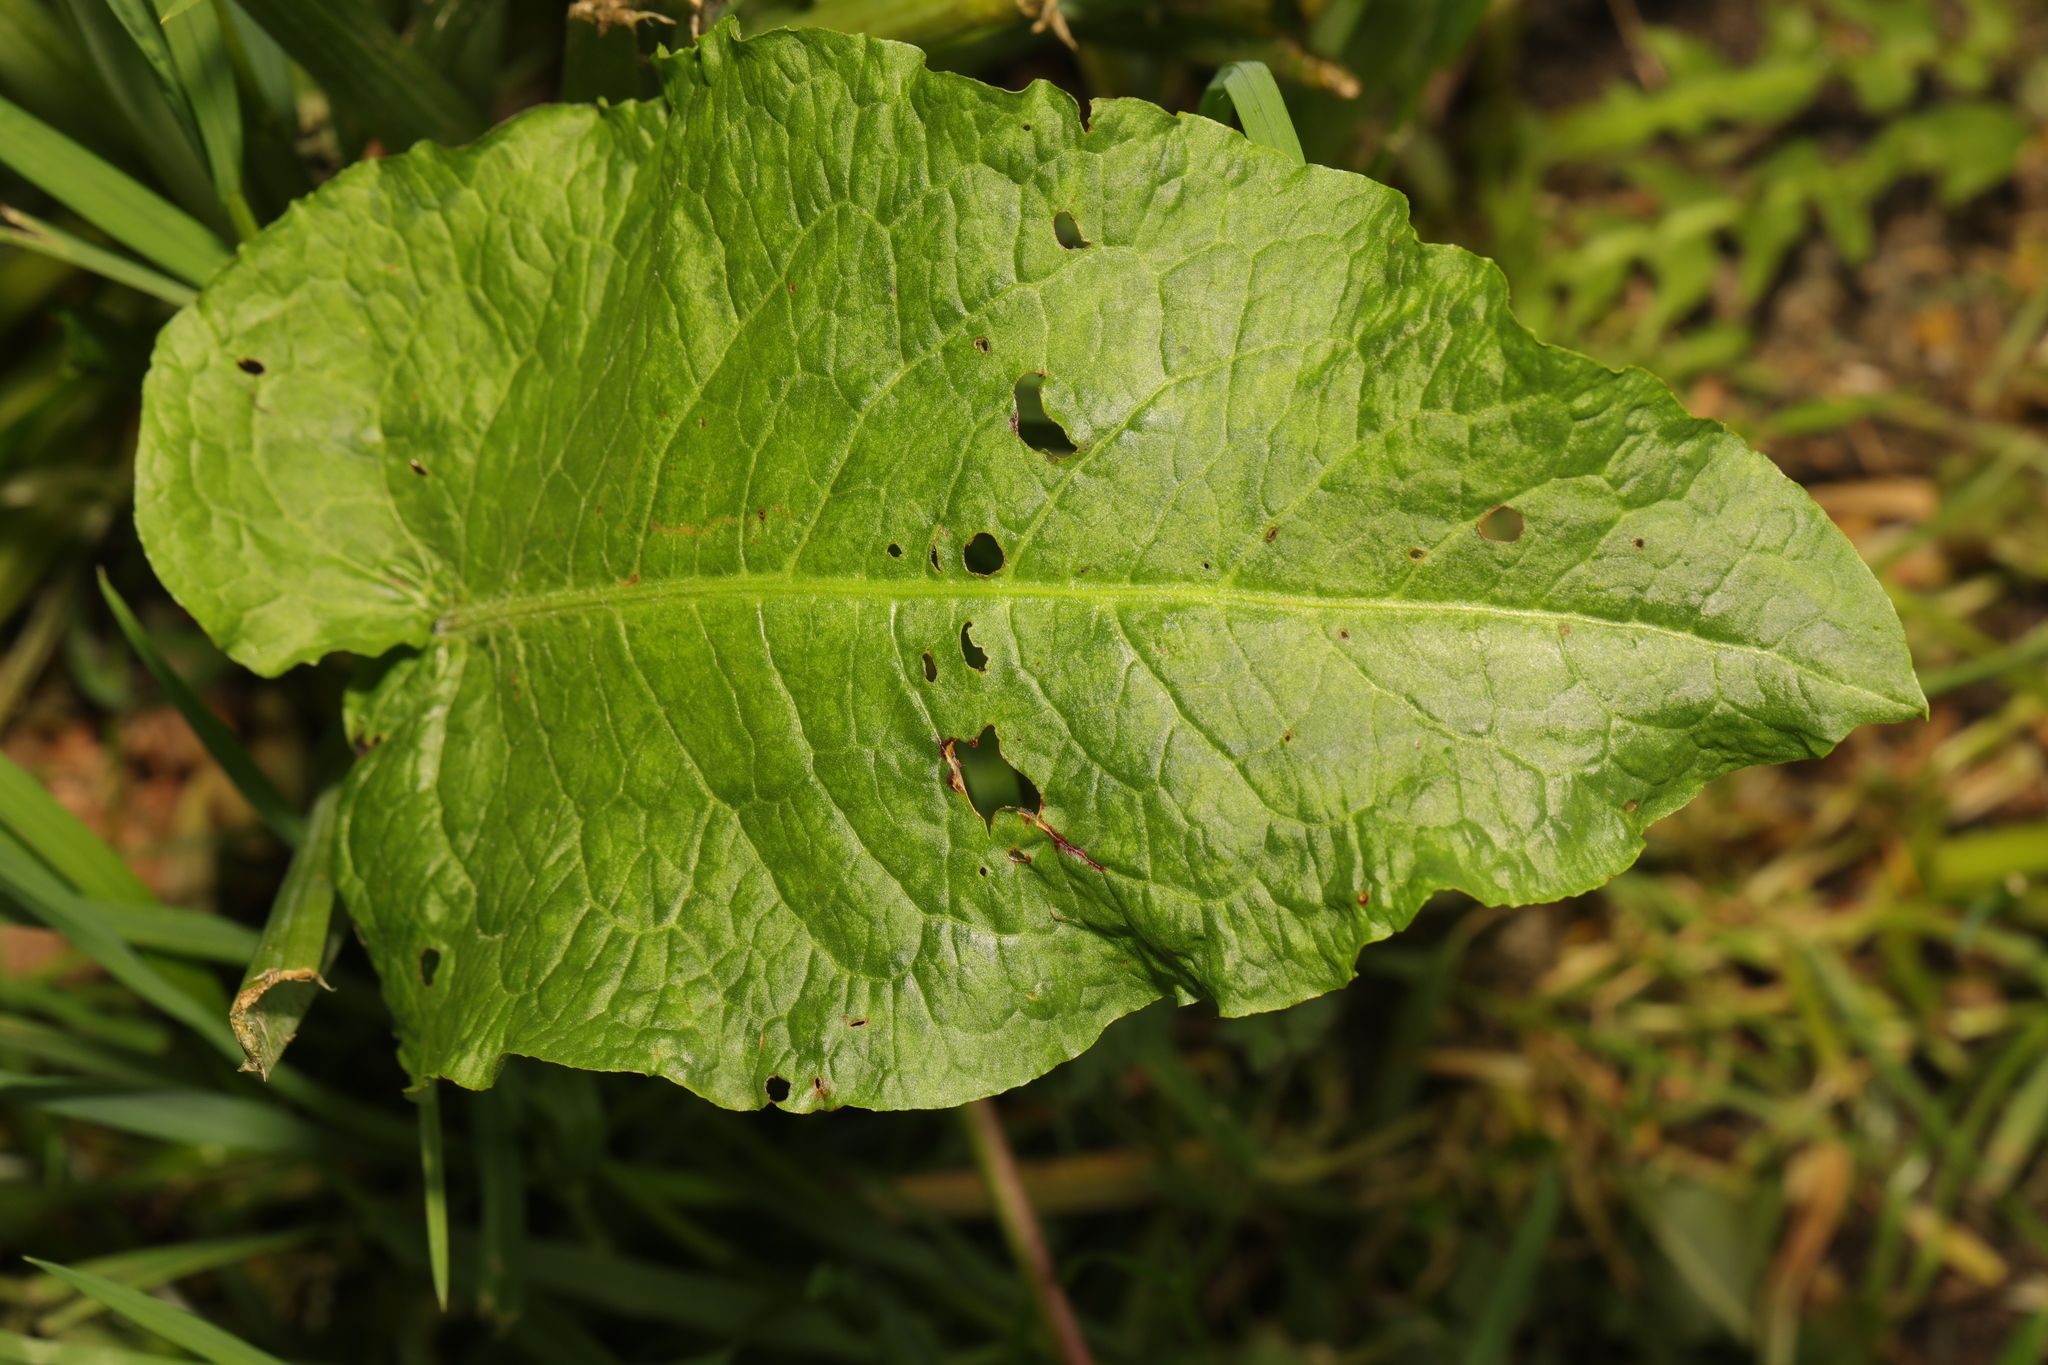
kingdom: Plantae
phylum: Tracheophyta
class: Magnoliopsida
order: Caryophyllales
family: Polygonaceae
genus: Rumex
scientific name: Rumex obtusifolius
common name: Bitter dock
